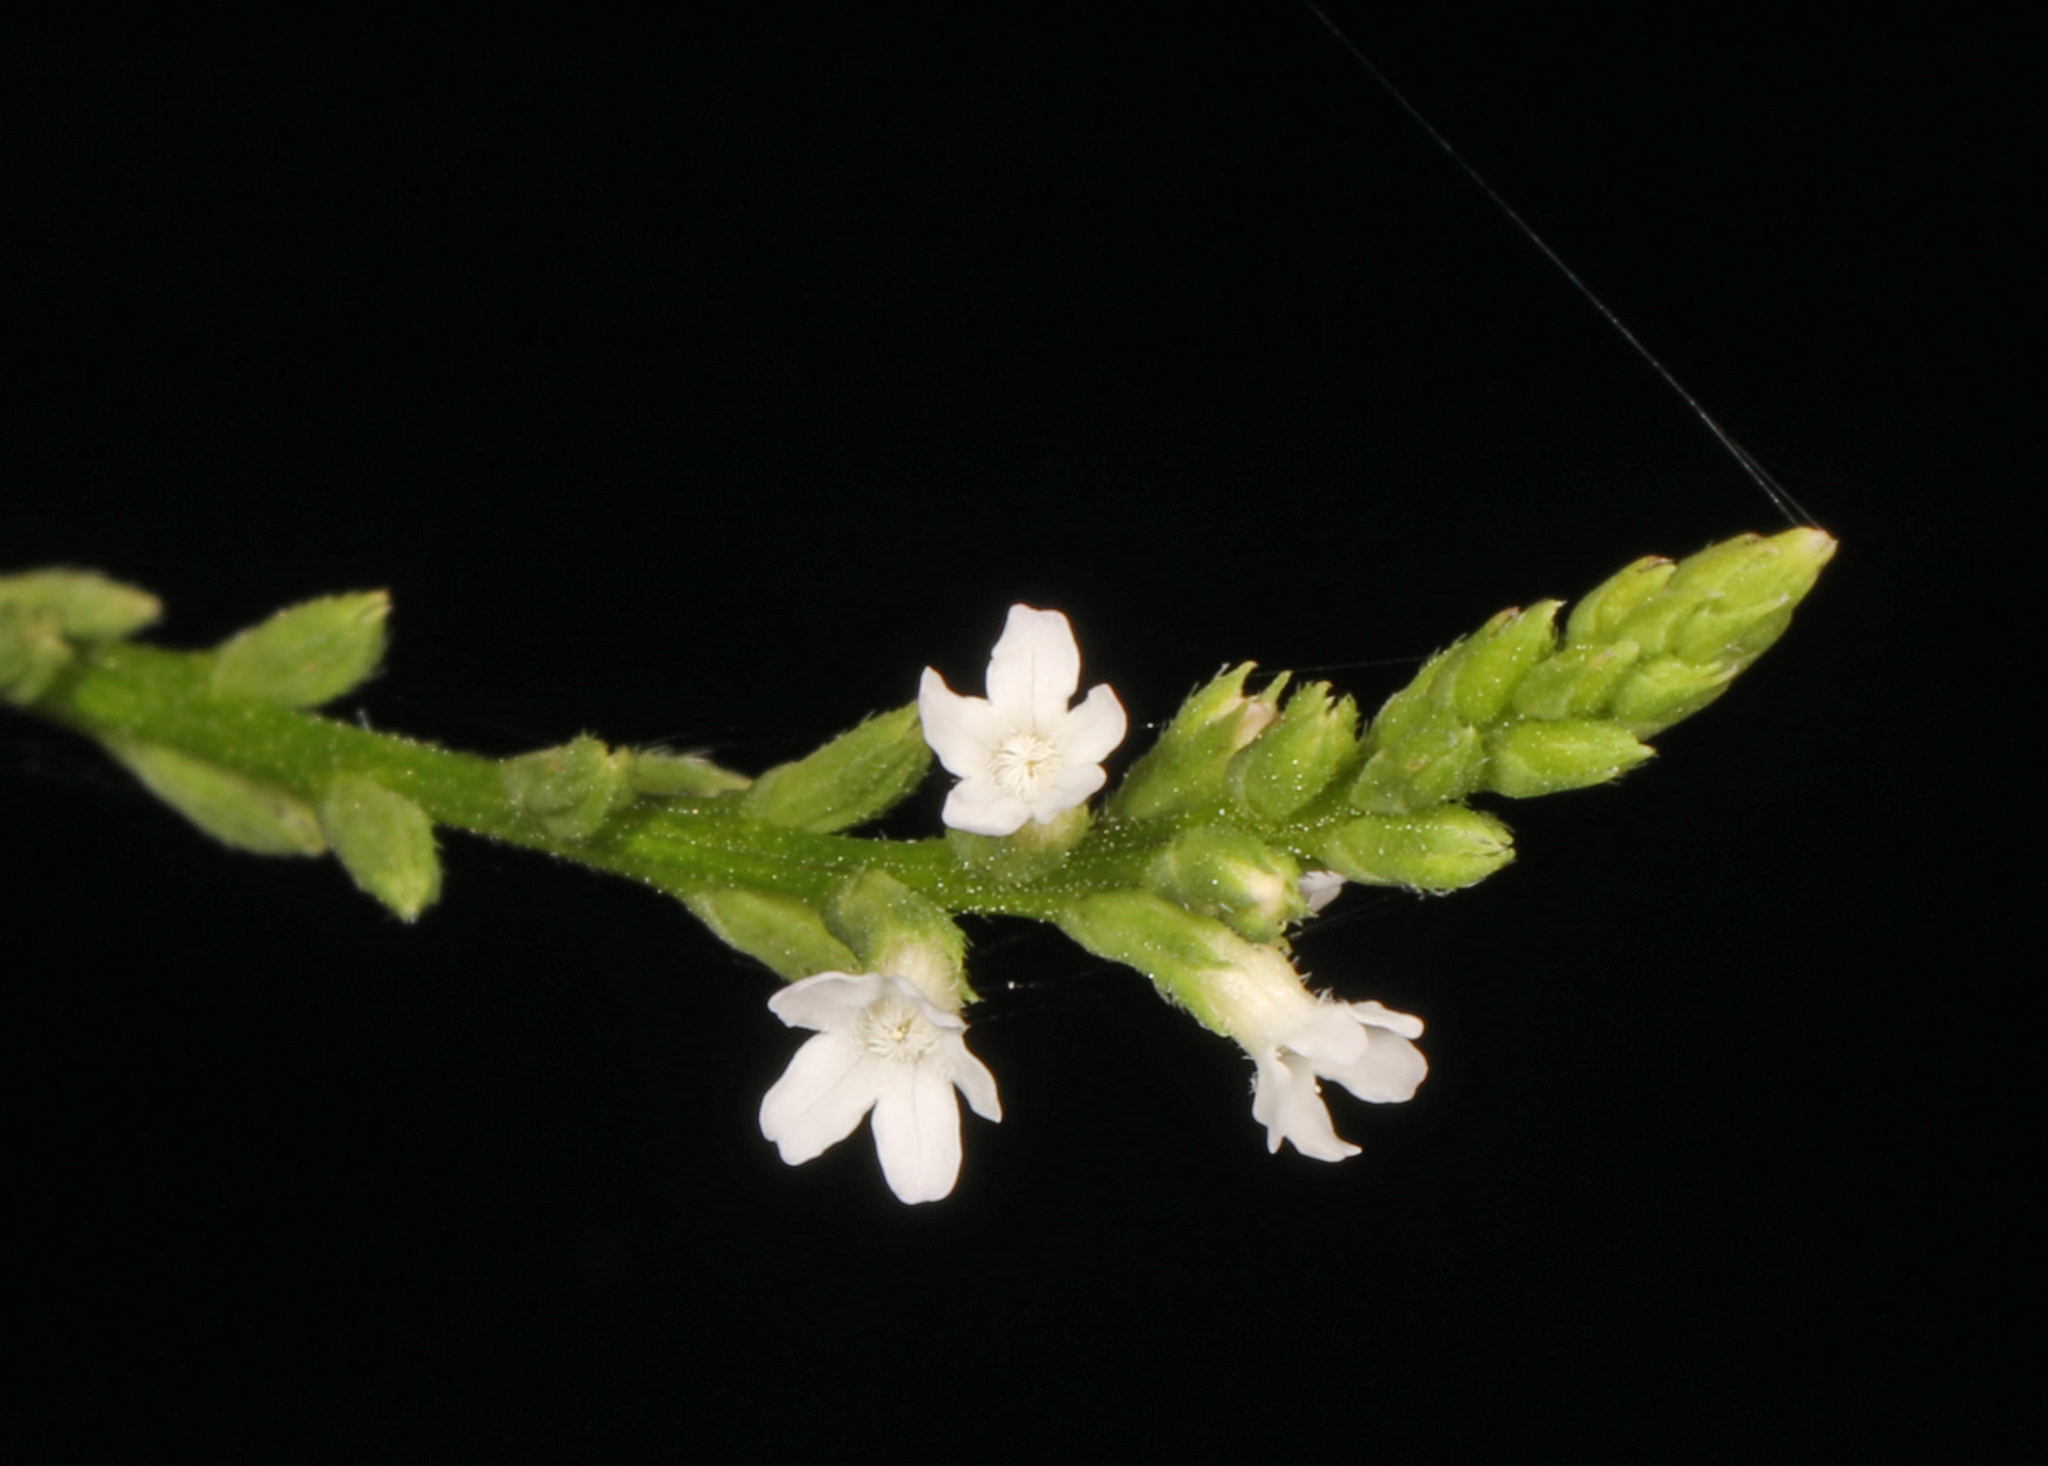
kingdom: Plantae
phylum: Tracheophyta
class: Magnoliopsida
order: Lamiales
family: Verbenaceae
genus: Verbena
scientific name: Verbena urticifolia
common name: Nettle-leaved vervain
